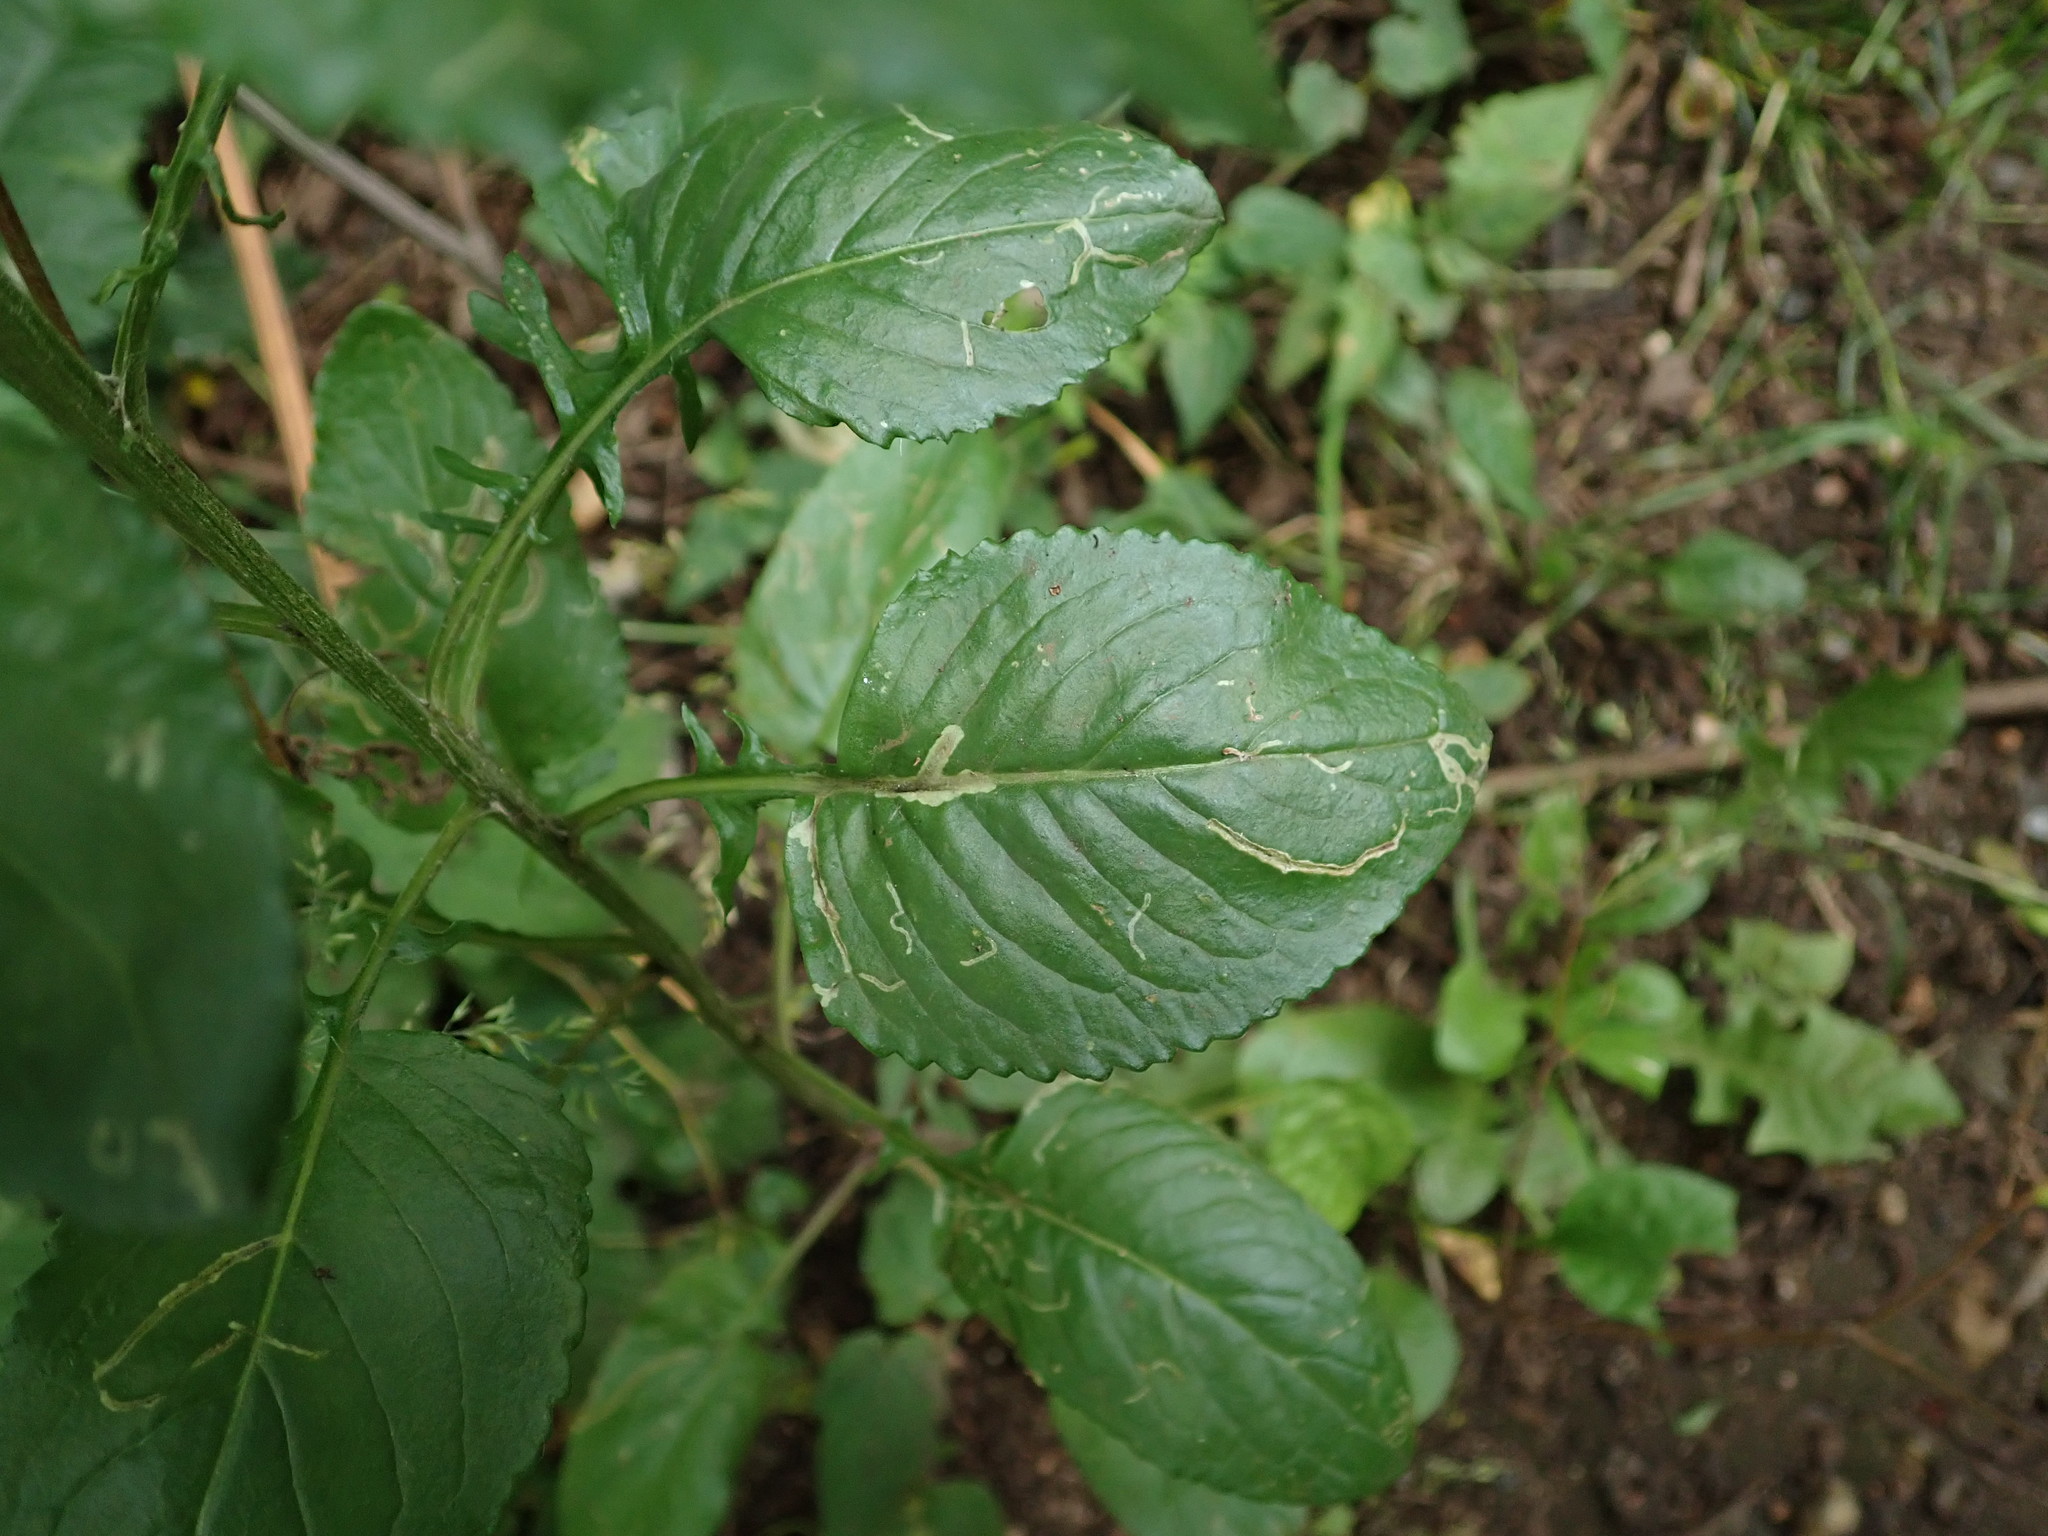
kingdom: Plantae
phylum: Tracheophyta
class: Magnoliopsida
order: Asterales
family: Asteraceae
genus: Jacobaea
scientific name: Jacobaea aquatica
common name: Water ragwort
